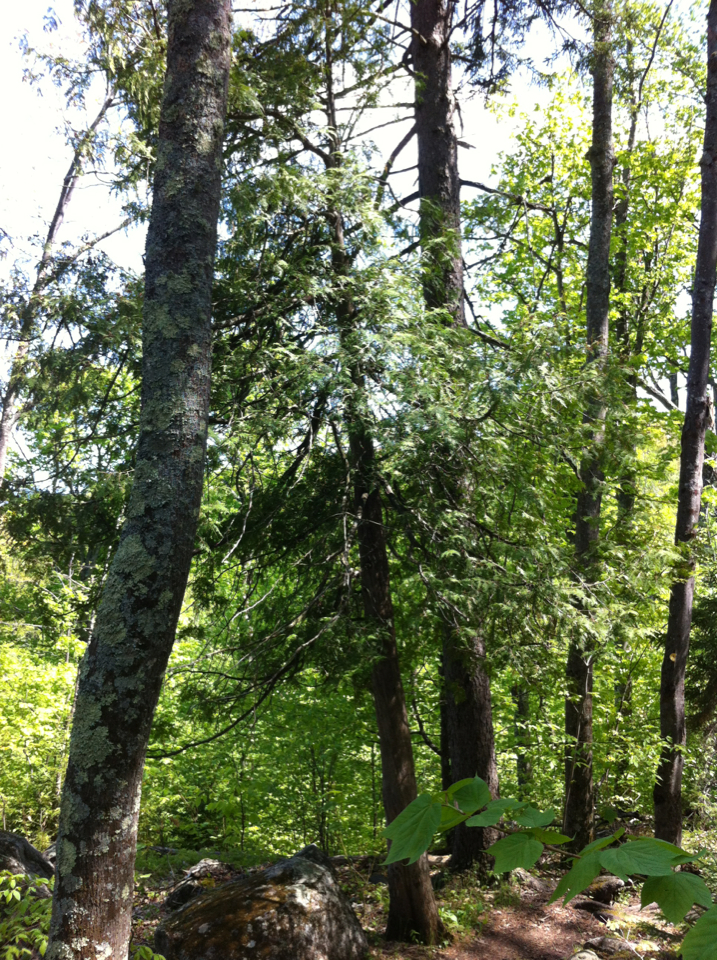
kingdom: Plantae
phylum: Tracheophyta
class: Pinopsida
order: Pinales
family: Cupressaceae
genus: Thuja
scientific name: Thuja occidentalis
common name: Northern white-cedar
